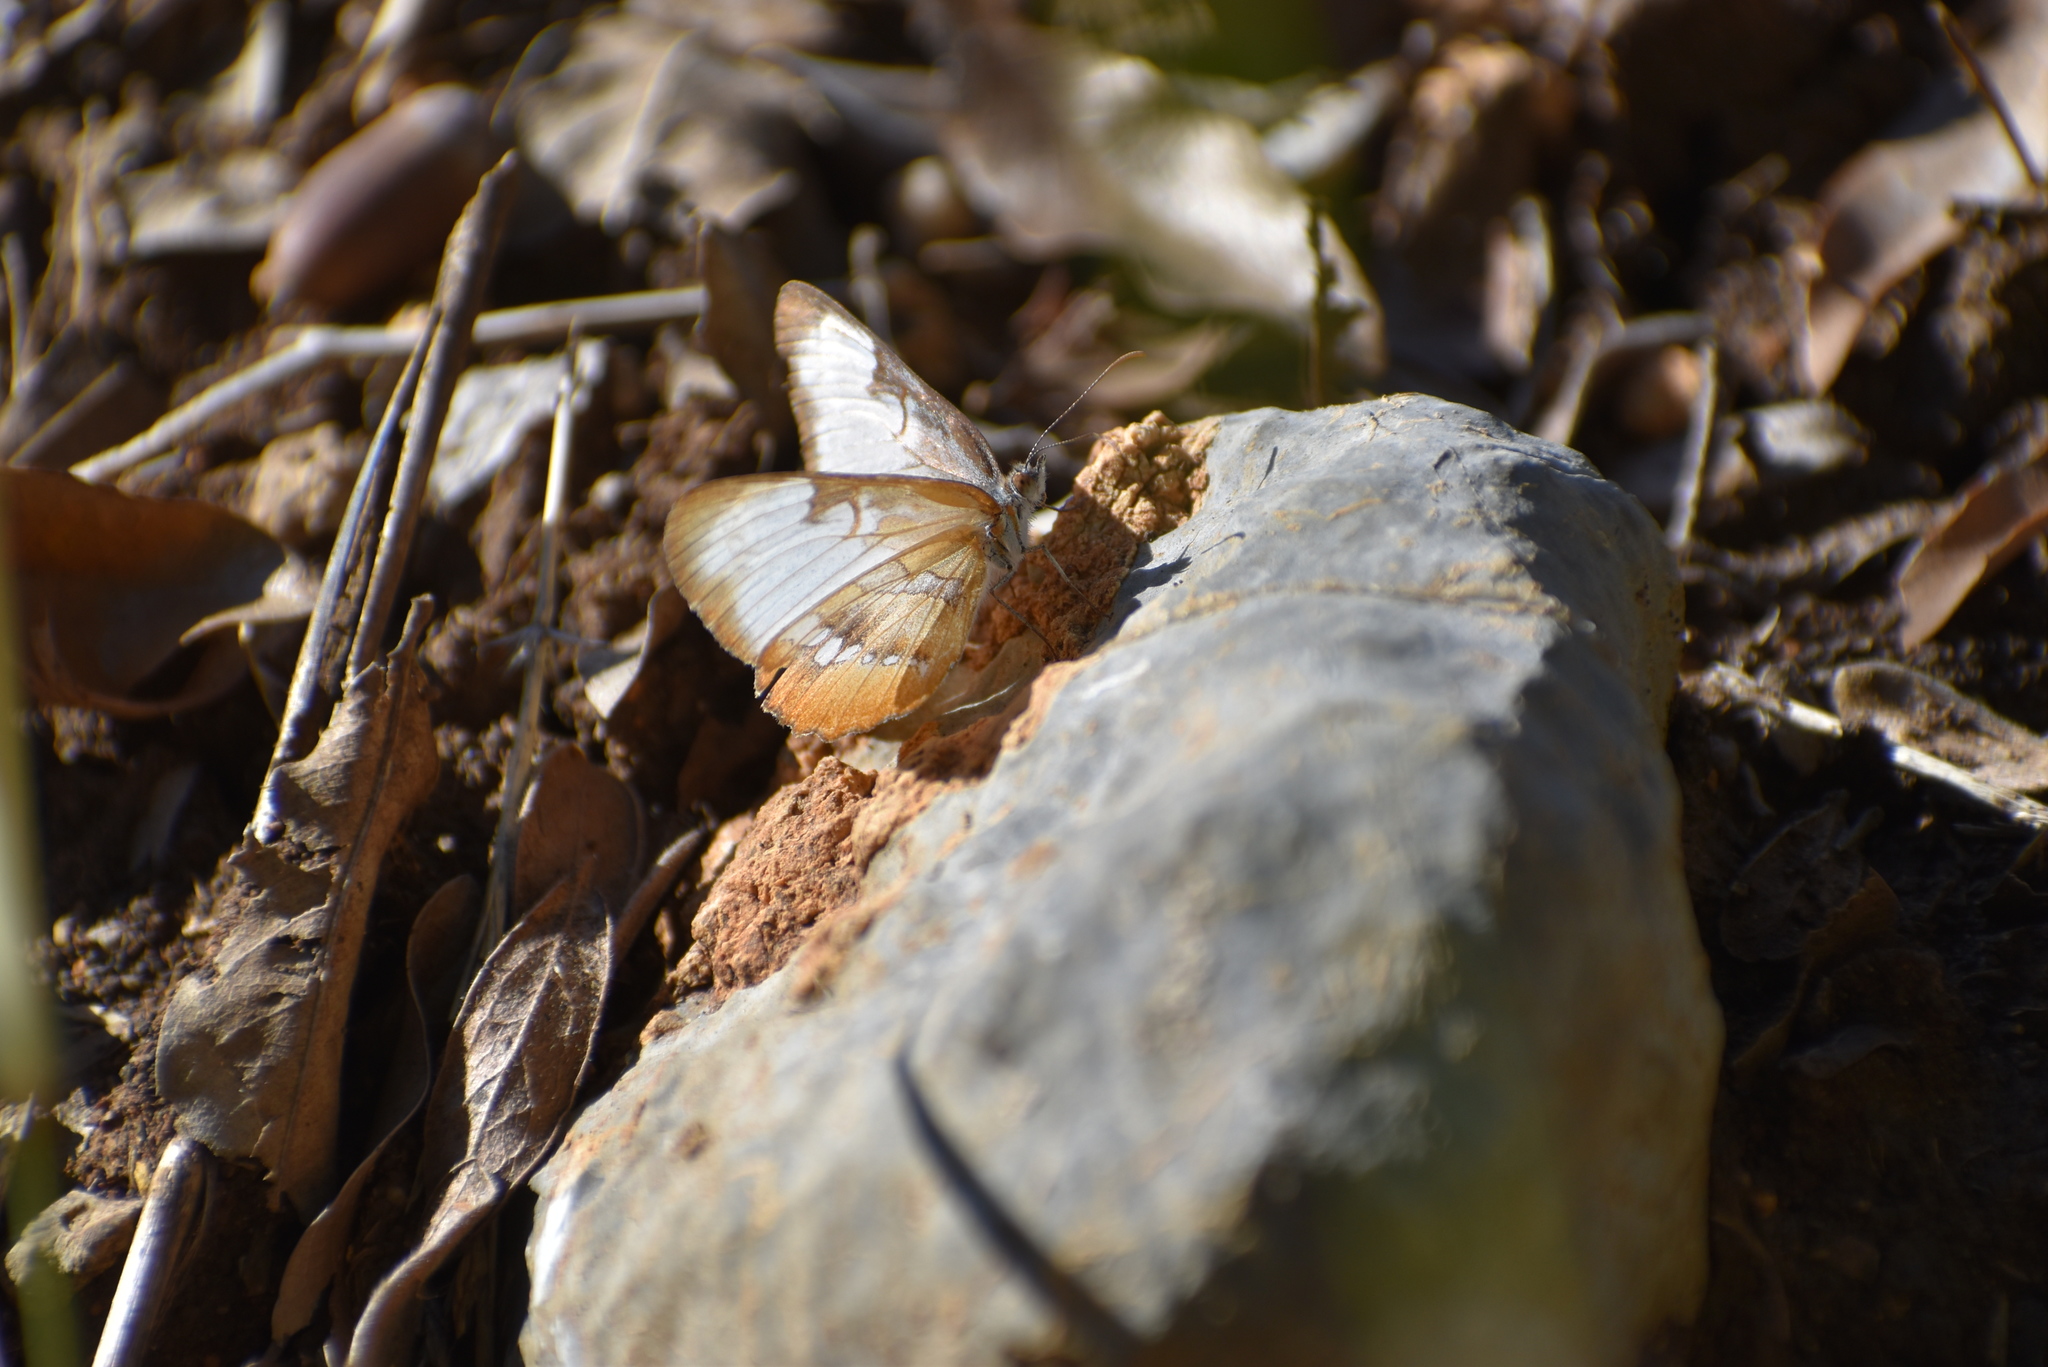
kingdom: Animalia
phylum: Arthropoda
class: Insecta
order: Lepidoptera
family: Nymphalidae
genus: Mestra
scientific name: Mestra amymone
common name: Common mestra
